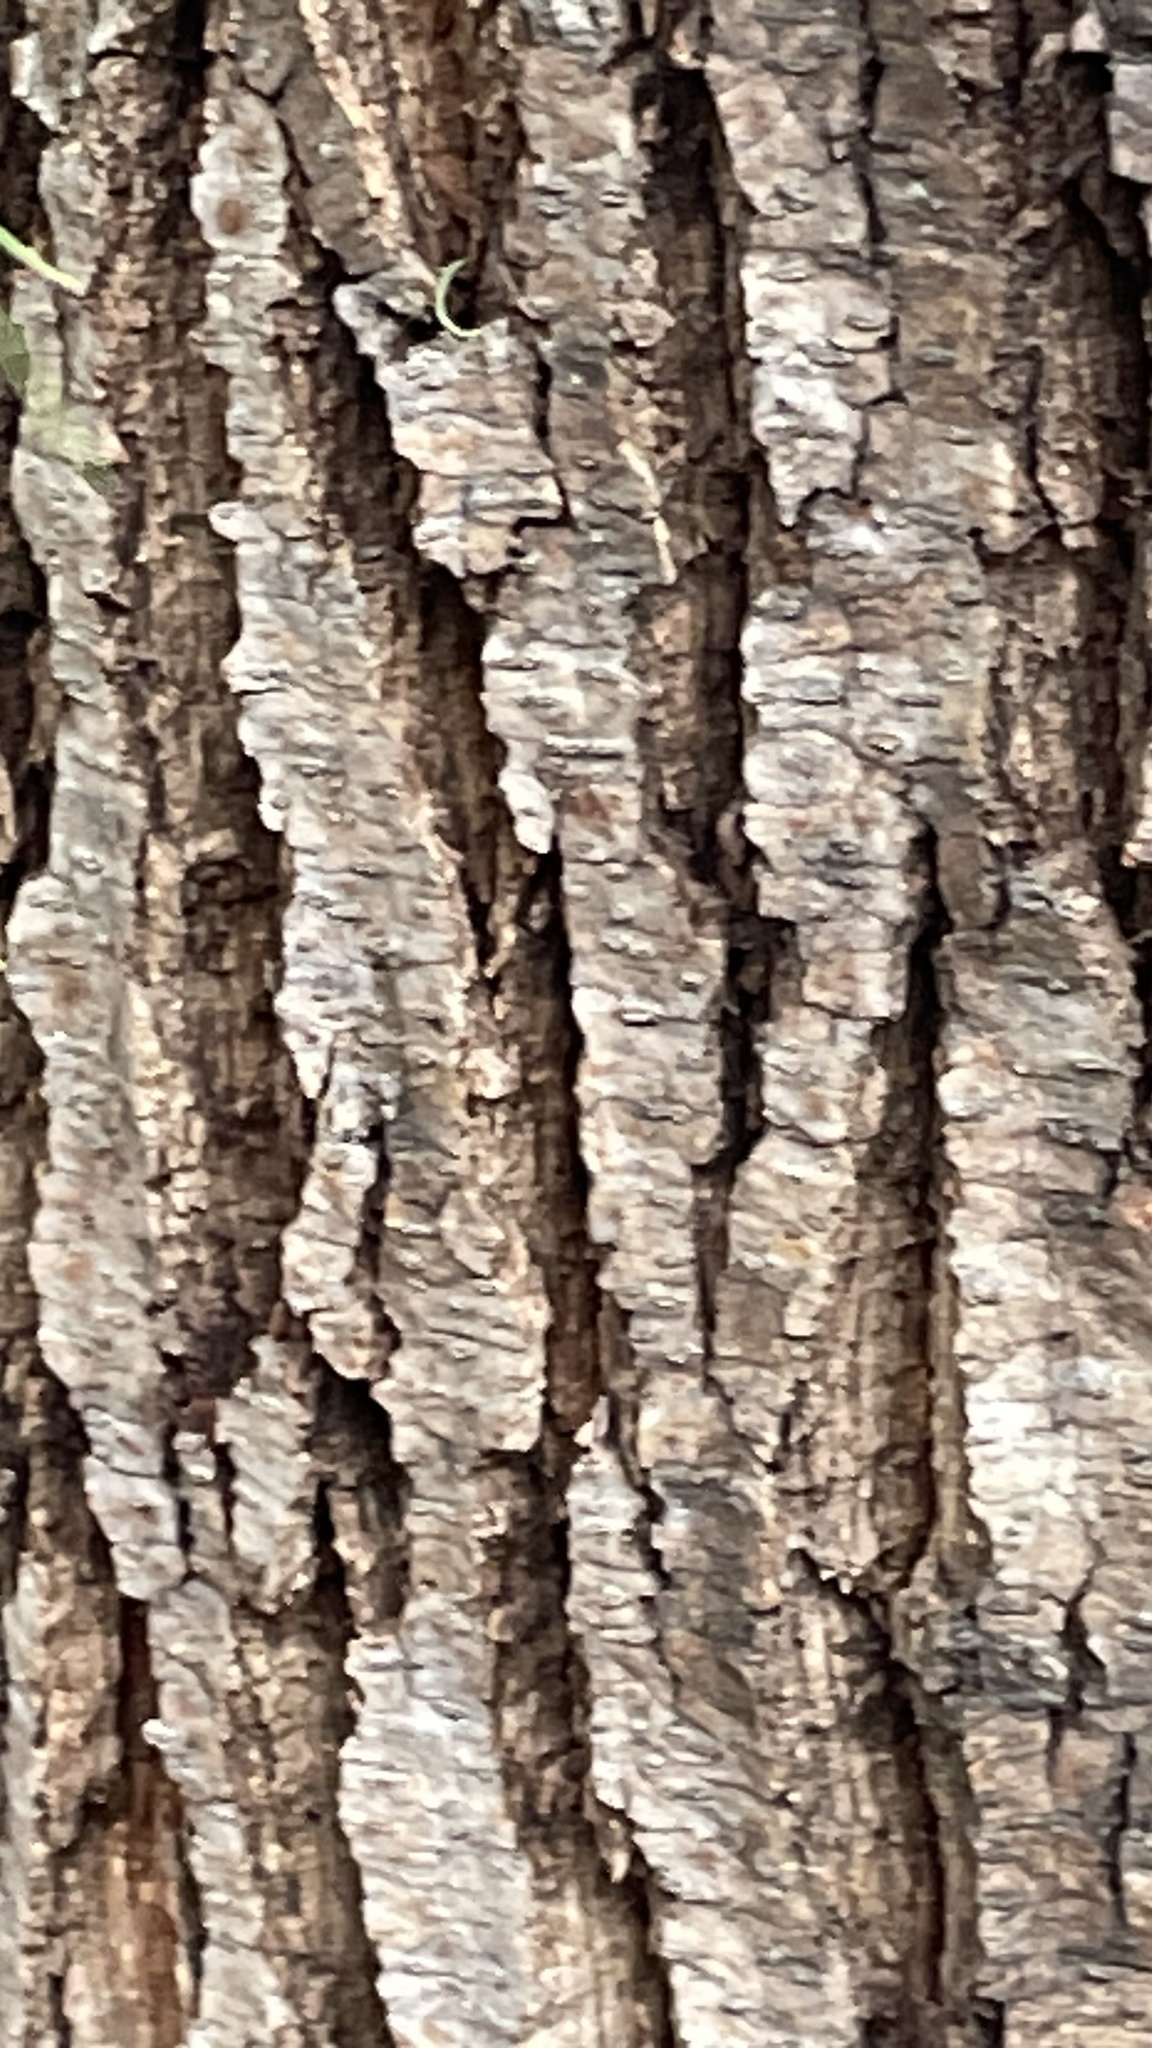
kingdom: Plantae
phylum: Tracheophyta
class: Magnoliopsida
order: Caryophyllales
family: Tamaricaceae
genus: Tamarix
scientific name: Tamarix aphylla
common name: Athel tamarisk
